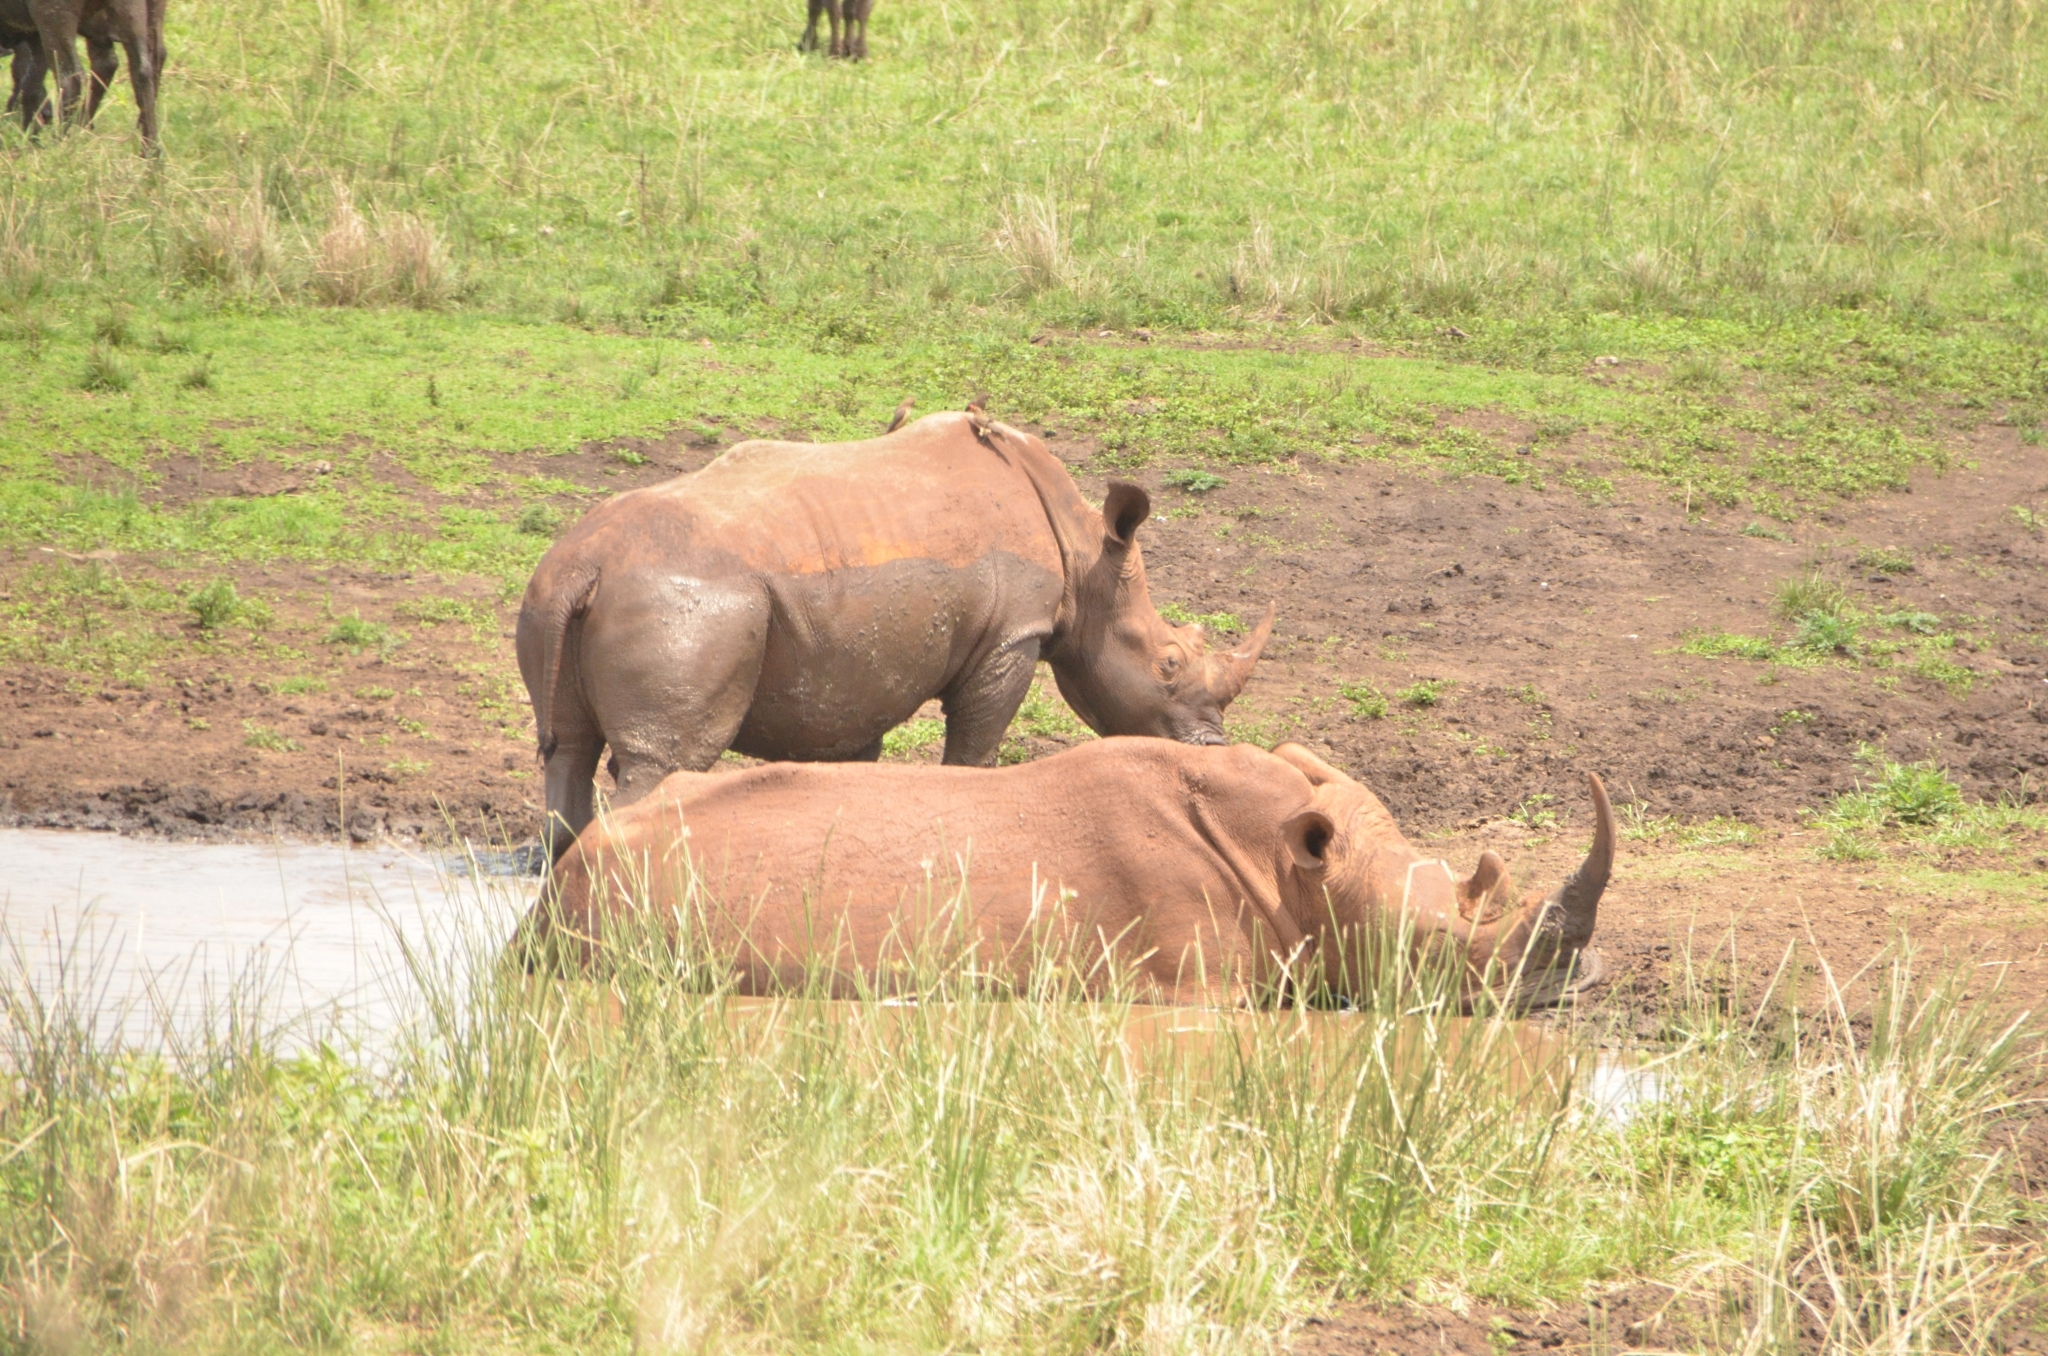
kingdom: Animalia
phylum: Chordata
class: Mammalia
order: Perissodactyla
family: Rhinocerotidae
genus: Ceratotherium
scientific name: Ceratotherium simum
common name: White rhinoceros
